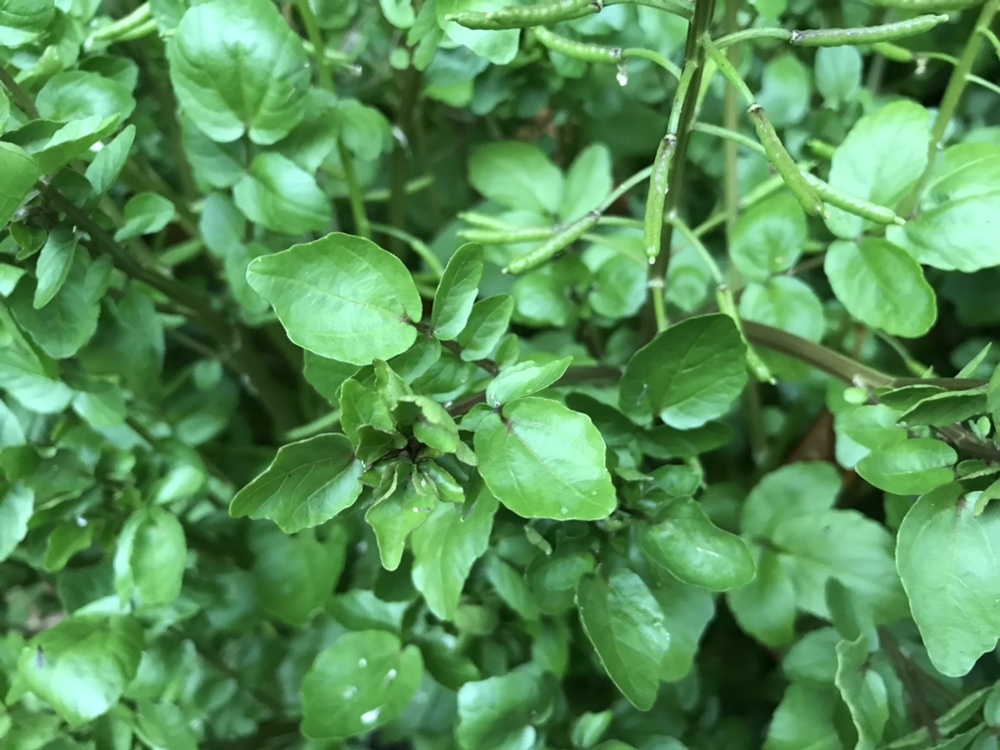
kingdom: Plantae
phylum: Tracheophyta
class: Magnoliopsida
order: Brassicales
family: Brassicaceae
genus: Nasturtium
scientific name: Nasturtium officinale
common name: Watercress
